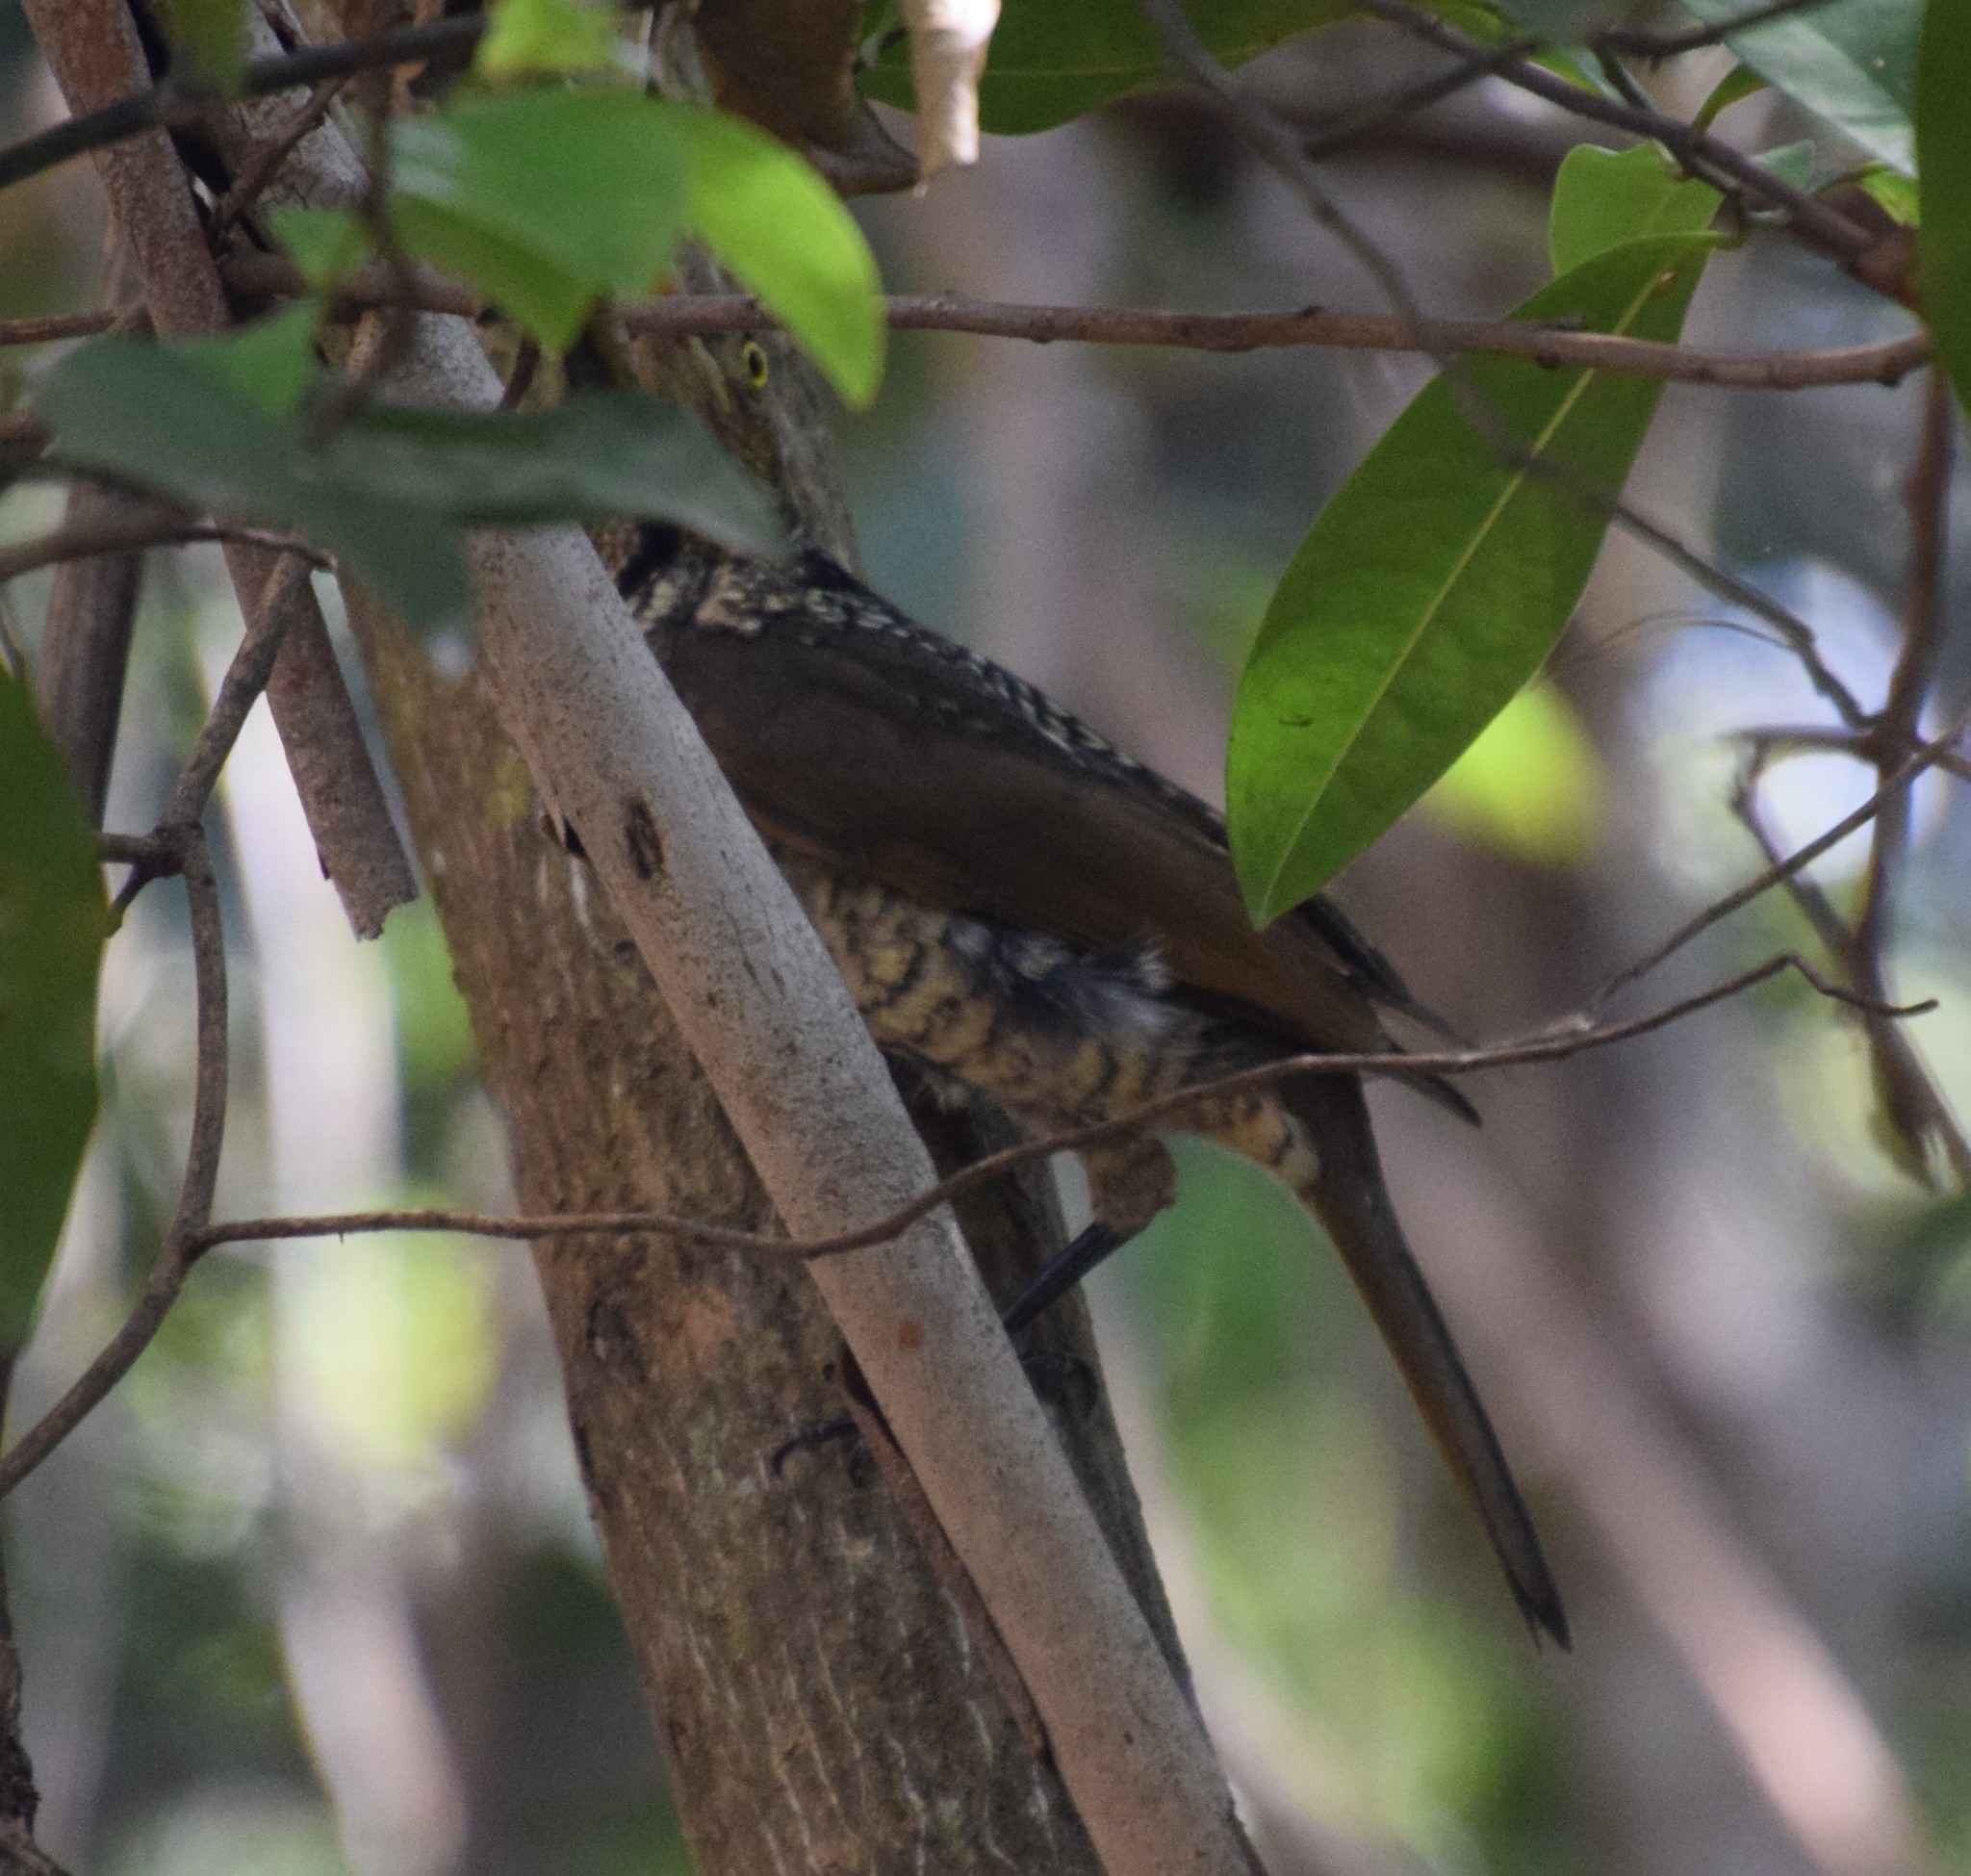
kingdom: Animalia
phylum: Chordata
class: Aves
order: Passeriformes
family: Ptilonorhynchidae
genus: Sericulus
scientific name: Sericulus chrysocephalus
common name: Regent bowerbird
